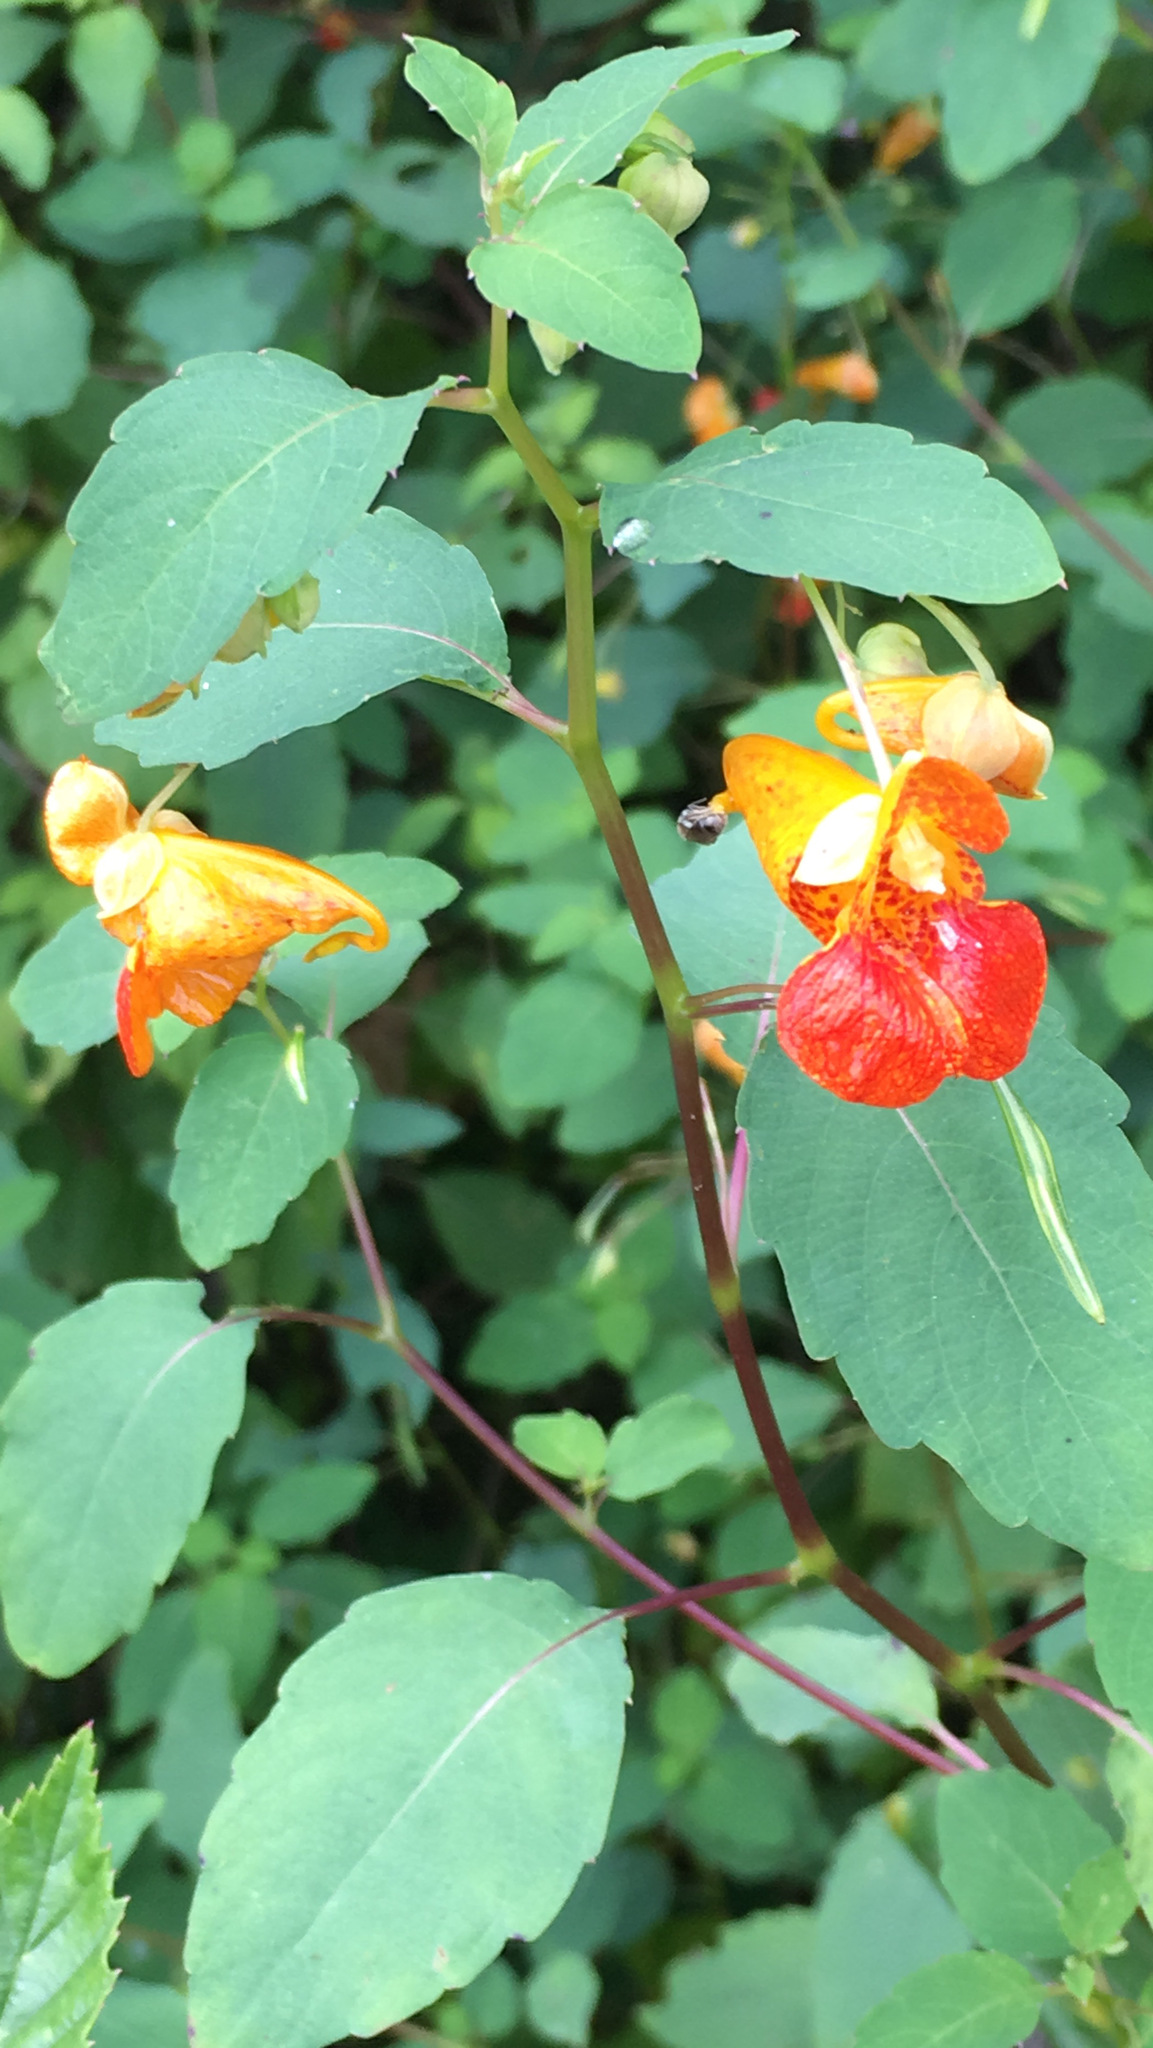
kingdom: Plantae
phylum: Tracheophyta
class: Magnoliopsida
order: Ericales
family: Balsaminaceae
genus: Impatiens
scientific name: Impatiens capensis
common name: Orange balsam
